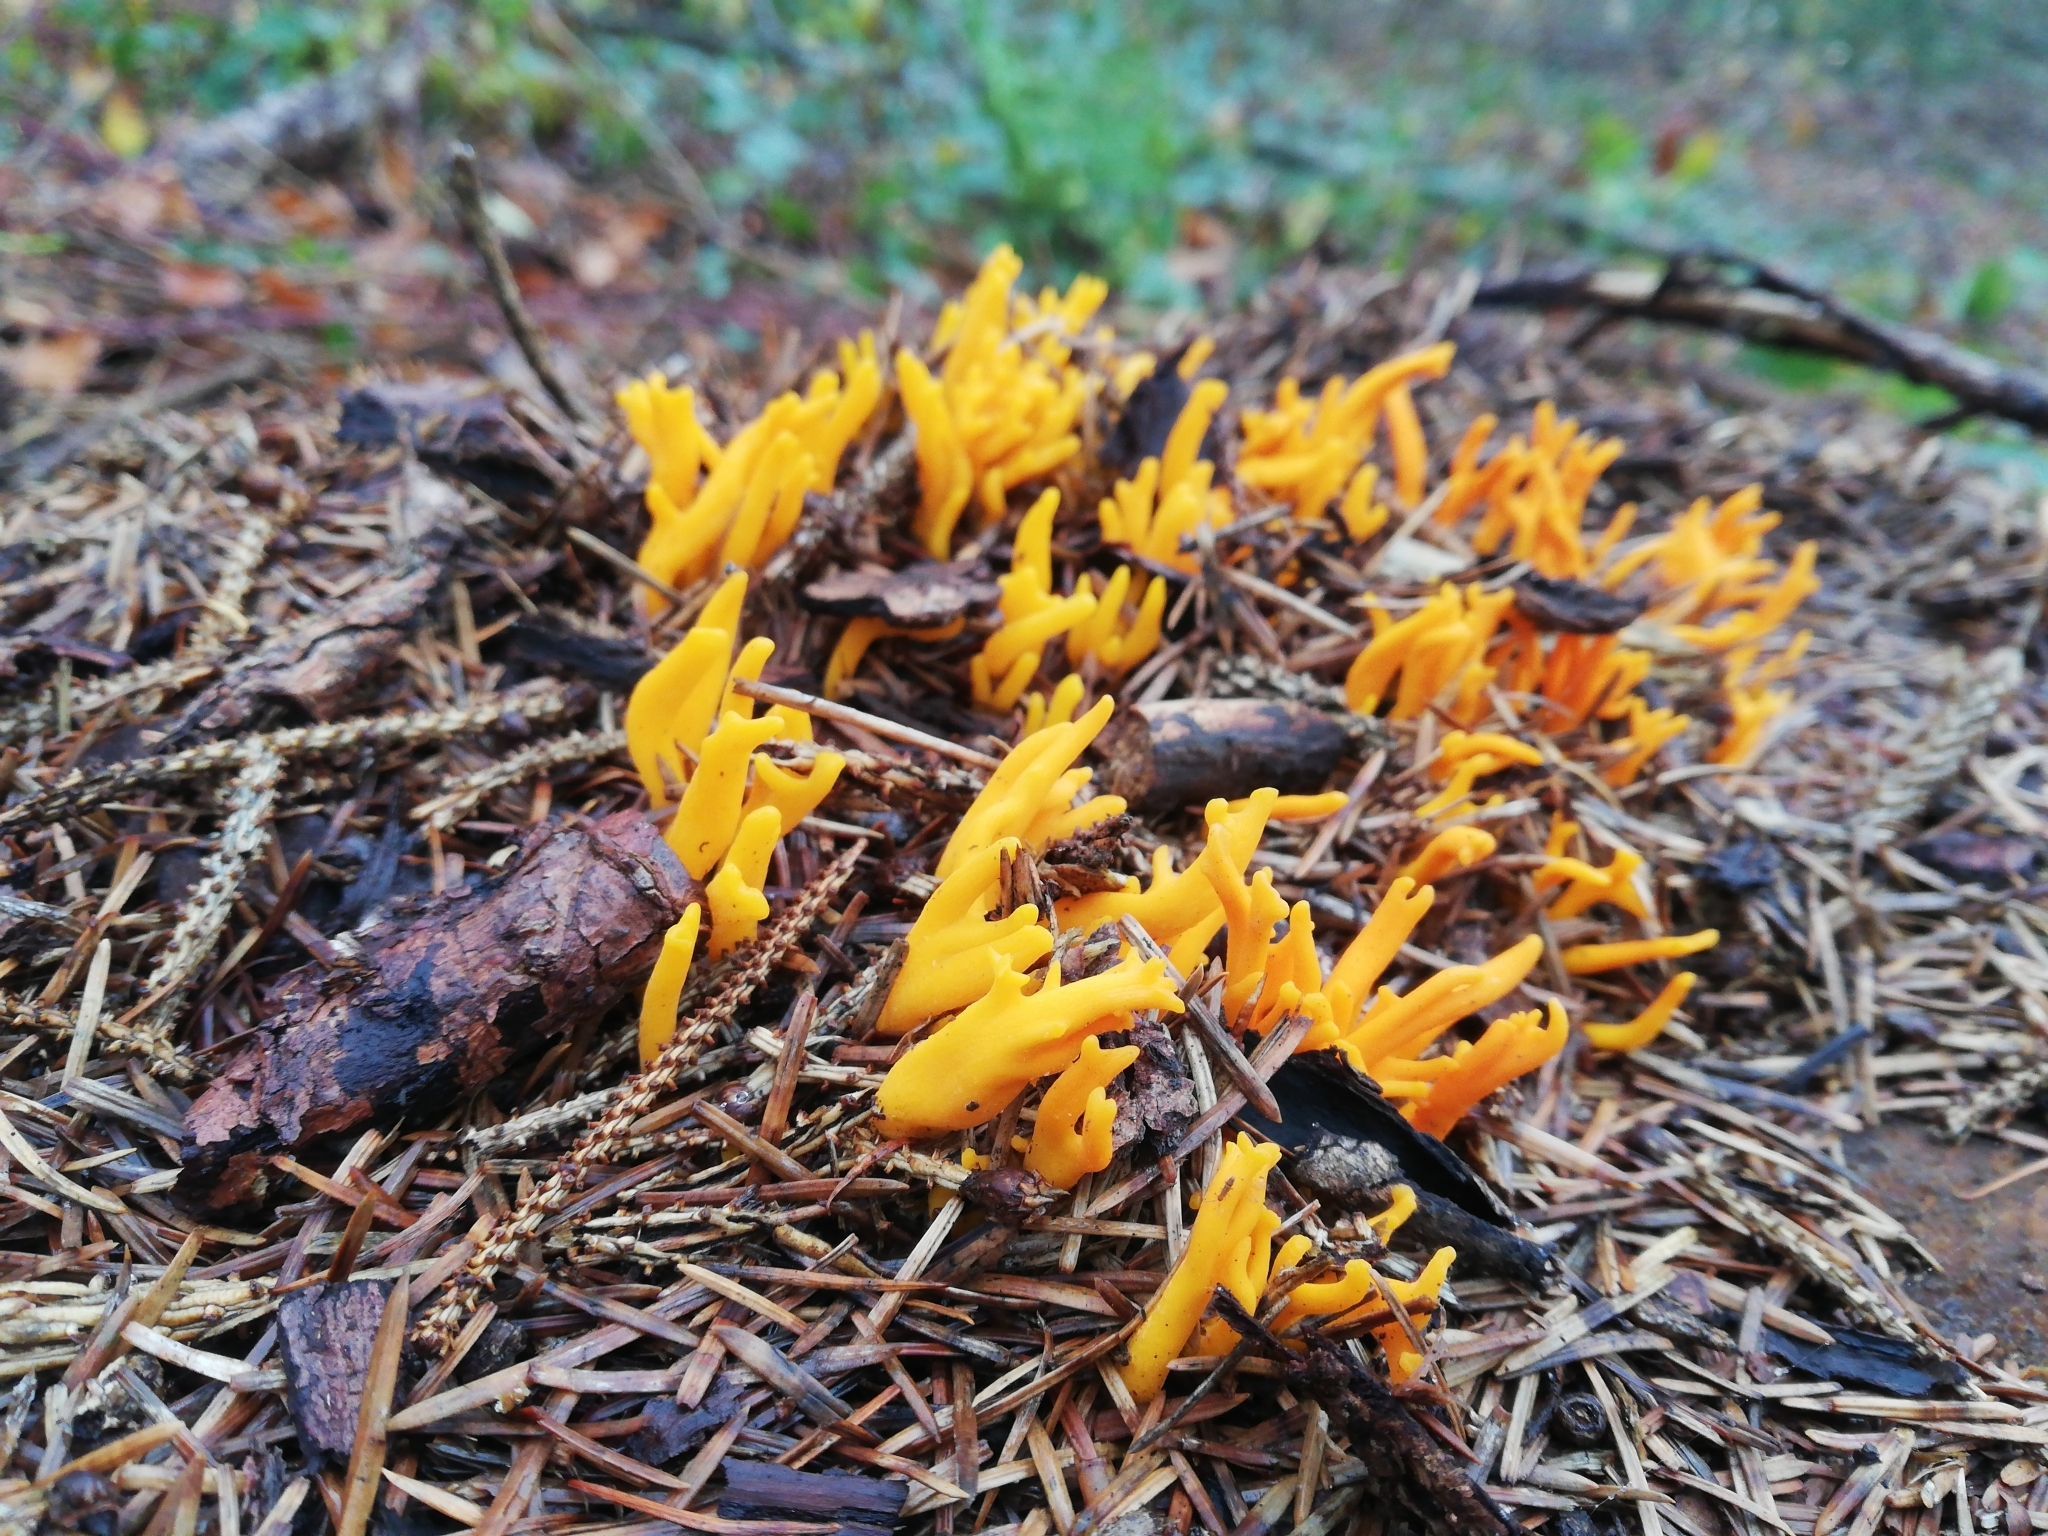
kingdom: Fungi
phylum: Basidiomycota
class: Dacrymycetes
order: Dacrymycetales
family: Dacrymycetaceae
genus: Calocera
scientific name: Calocera viscosa
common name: Yellow stagshorn
